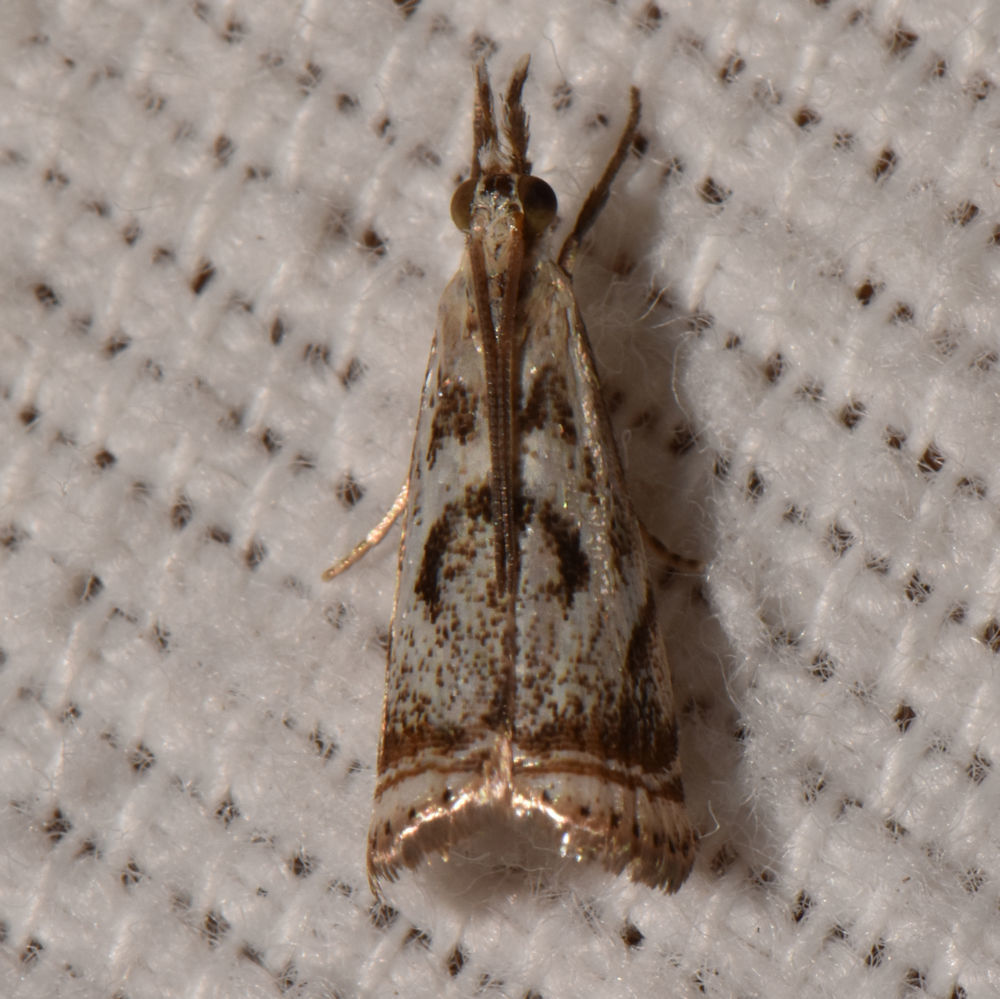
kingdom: Animalia
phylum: Arthropoda
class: Insecta
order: Lepidoptera
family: Crambidae
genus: Microcrambus
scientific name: Microcrambus elegans
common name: Elegant grass-veneer
